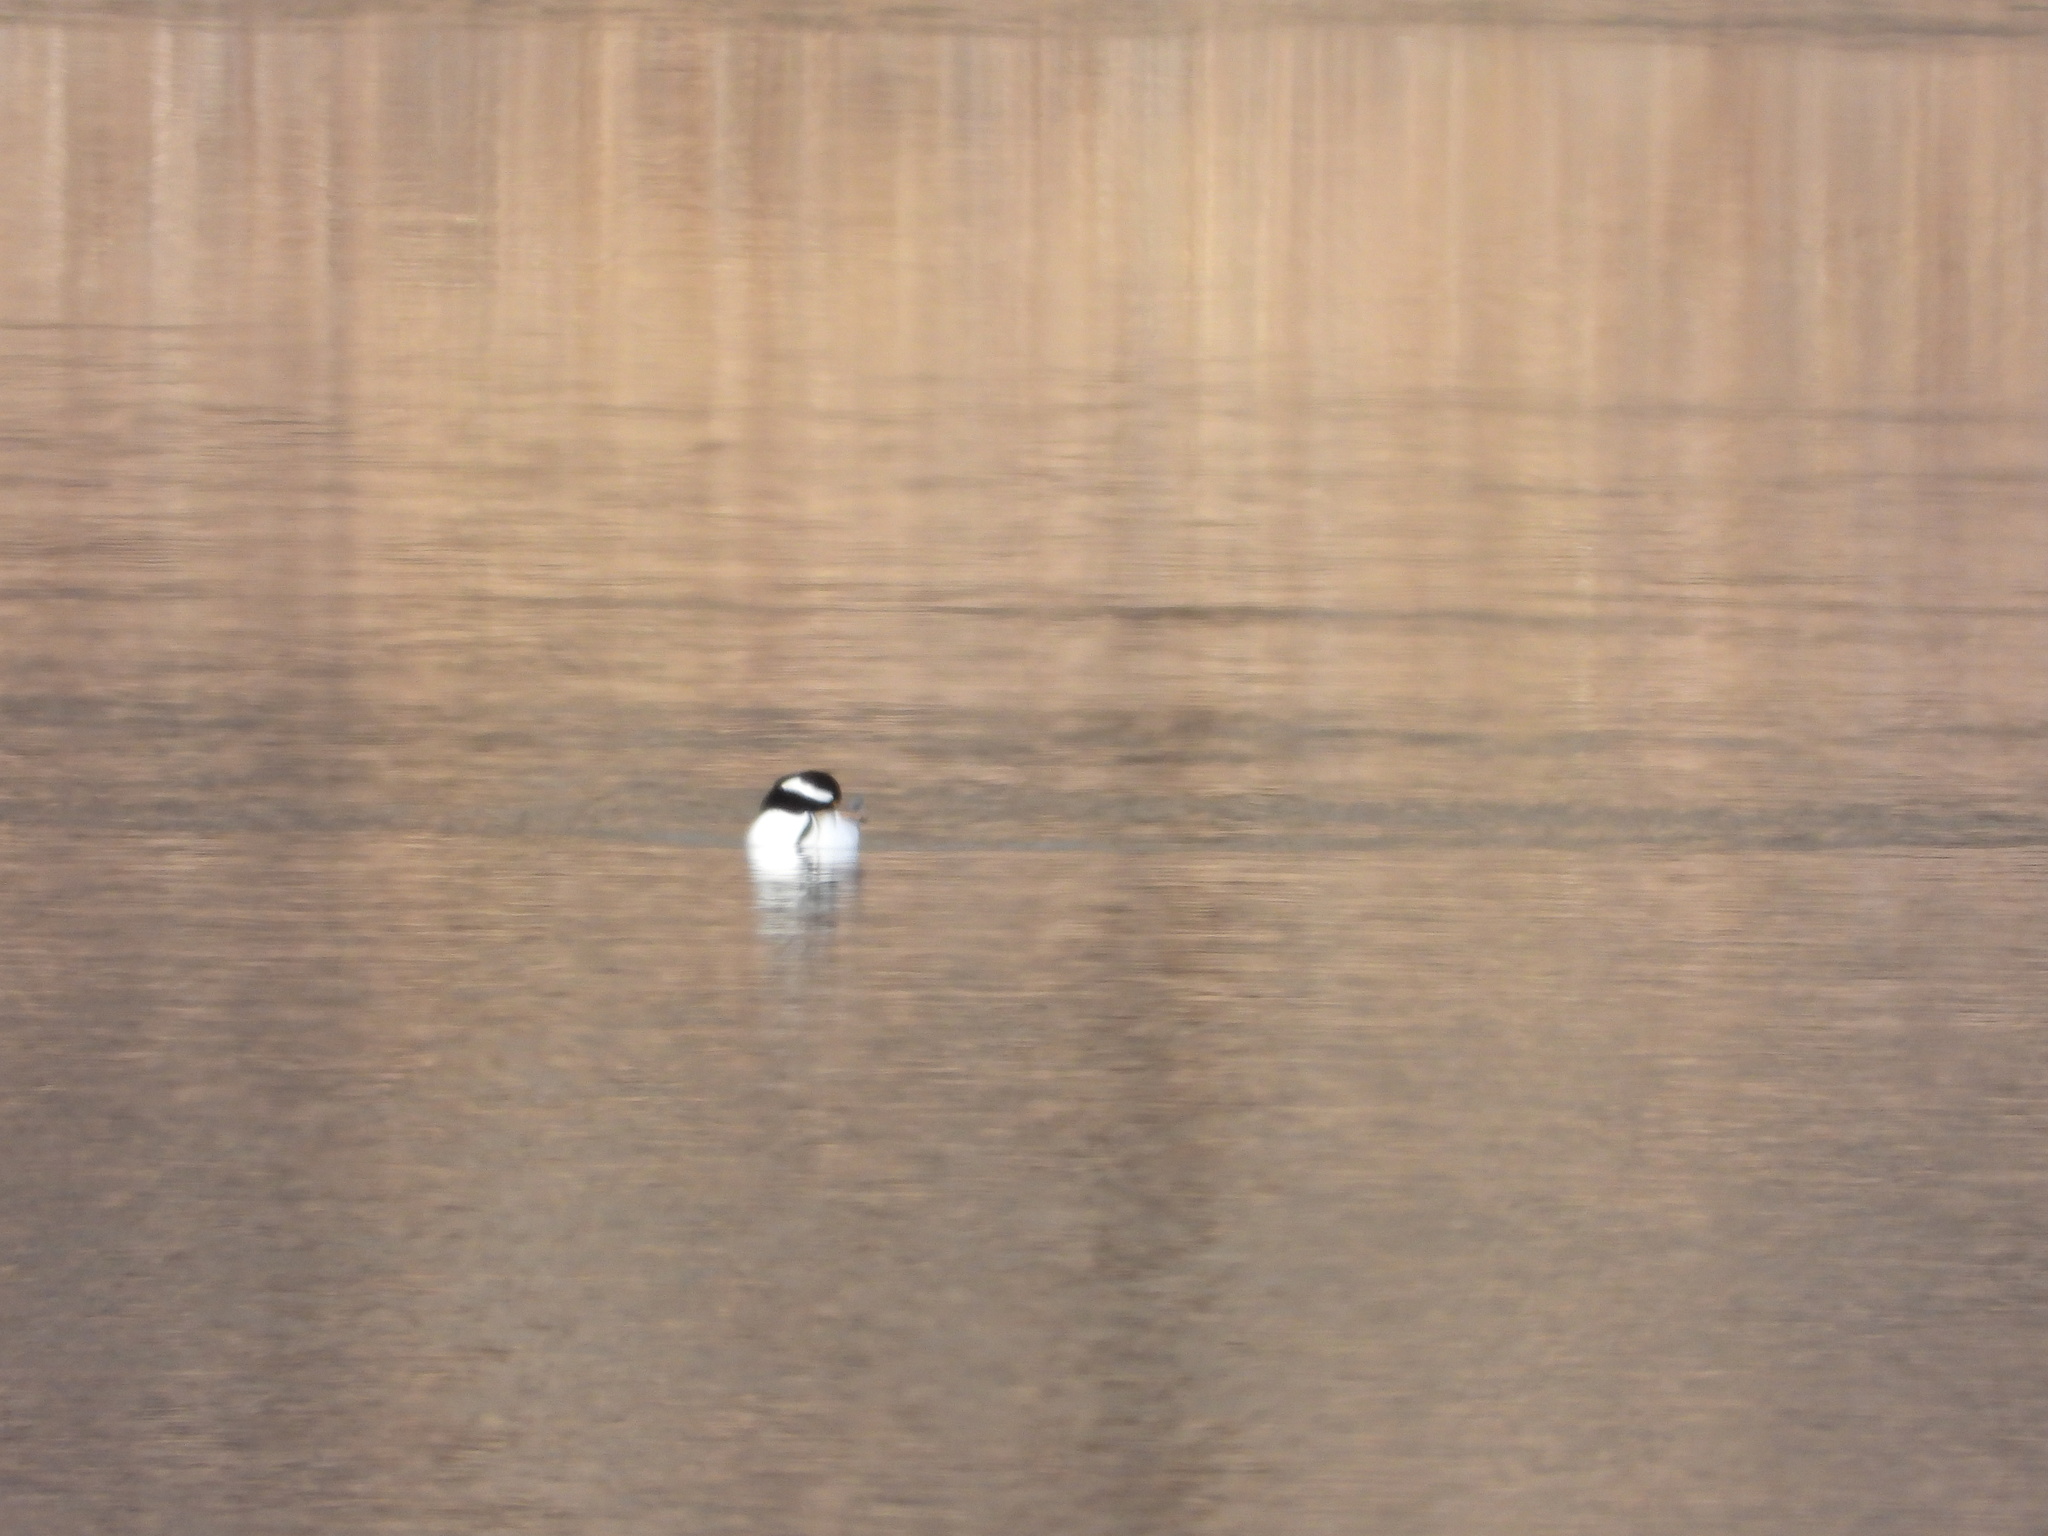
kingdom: Animalia
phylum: Chordata
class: Aves
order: Anseriformes
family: Anatidae
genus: Lophodytes
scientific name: Lophodytes cucullatus
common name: Hooded merganser
